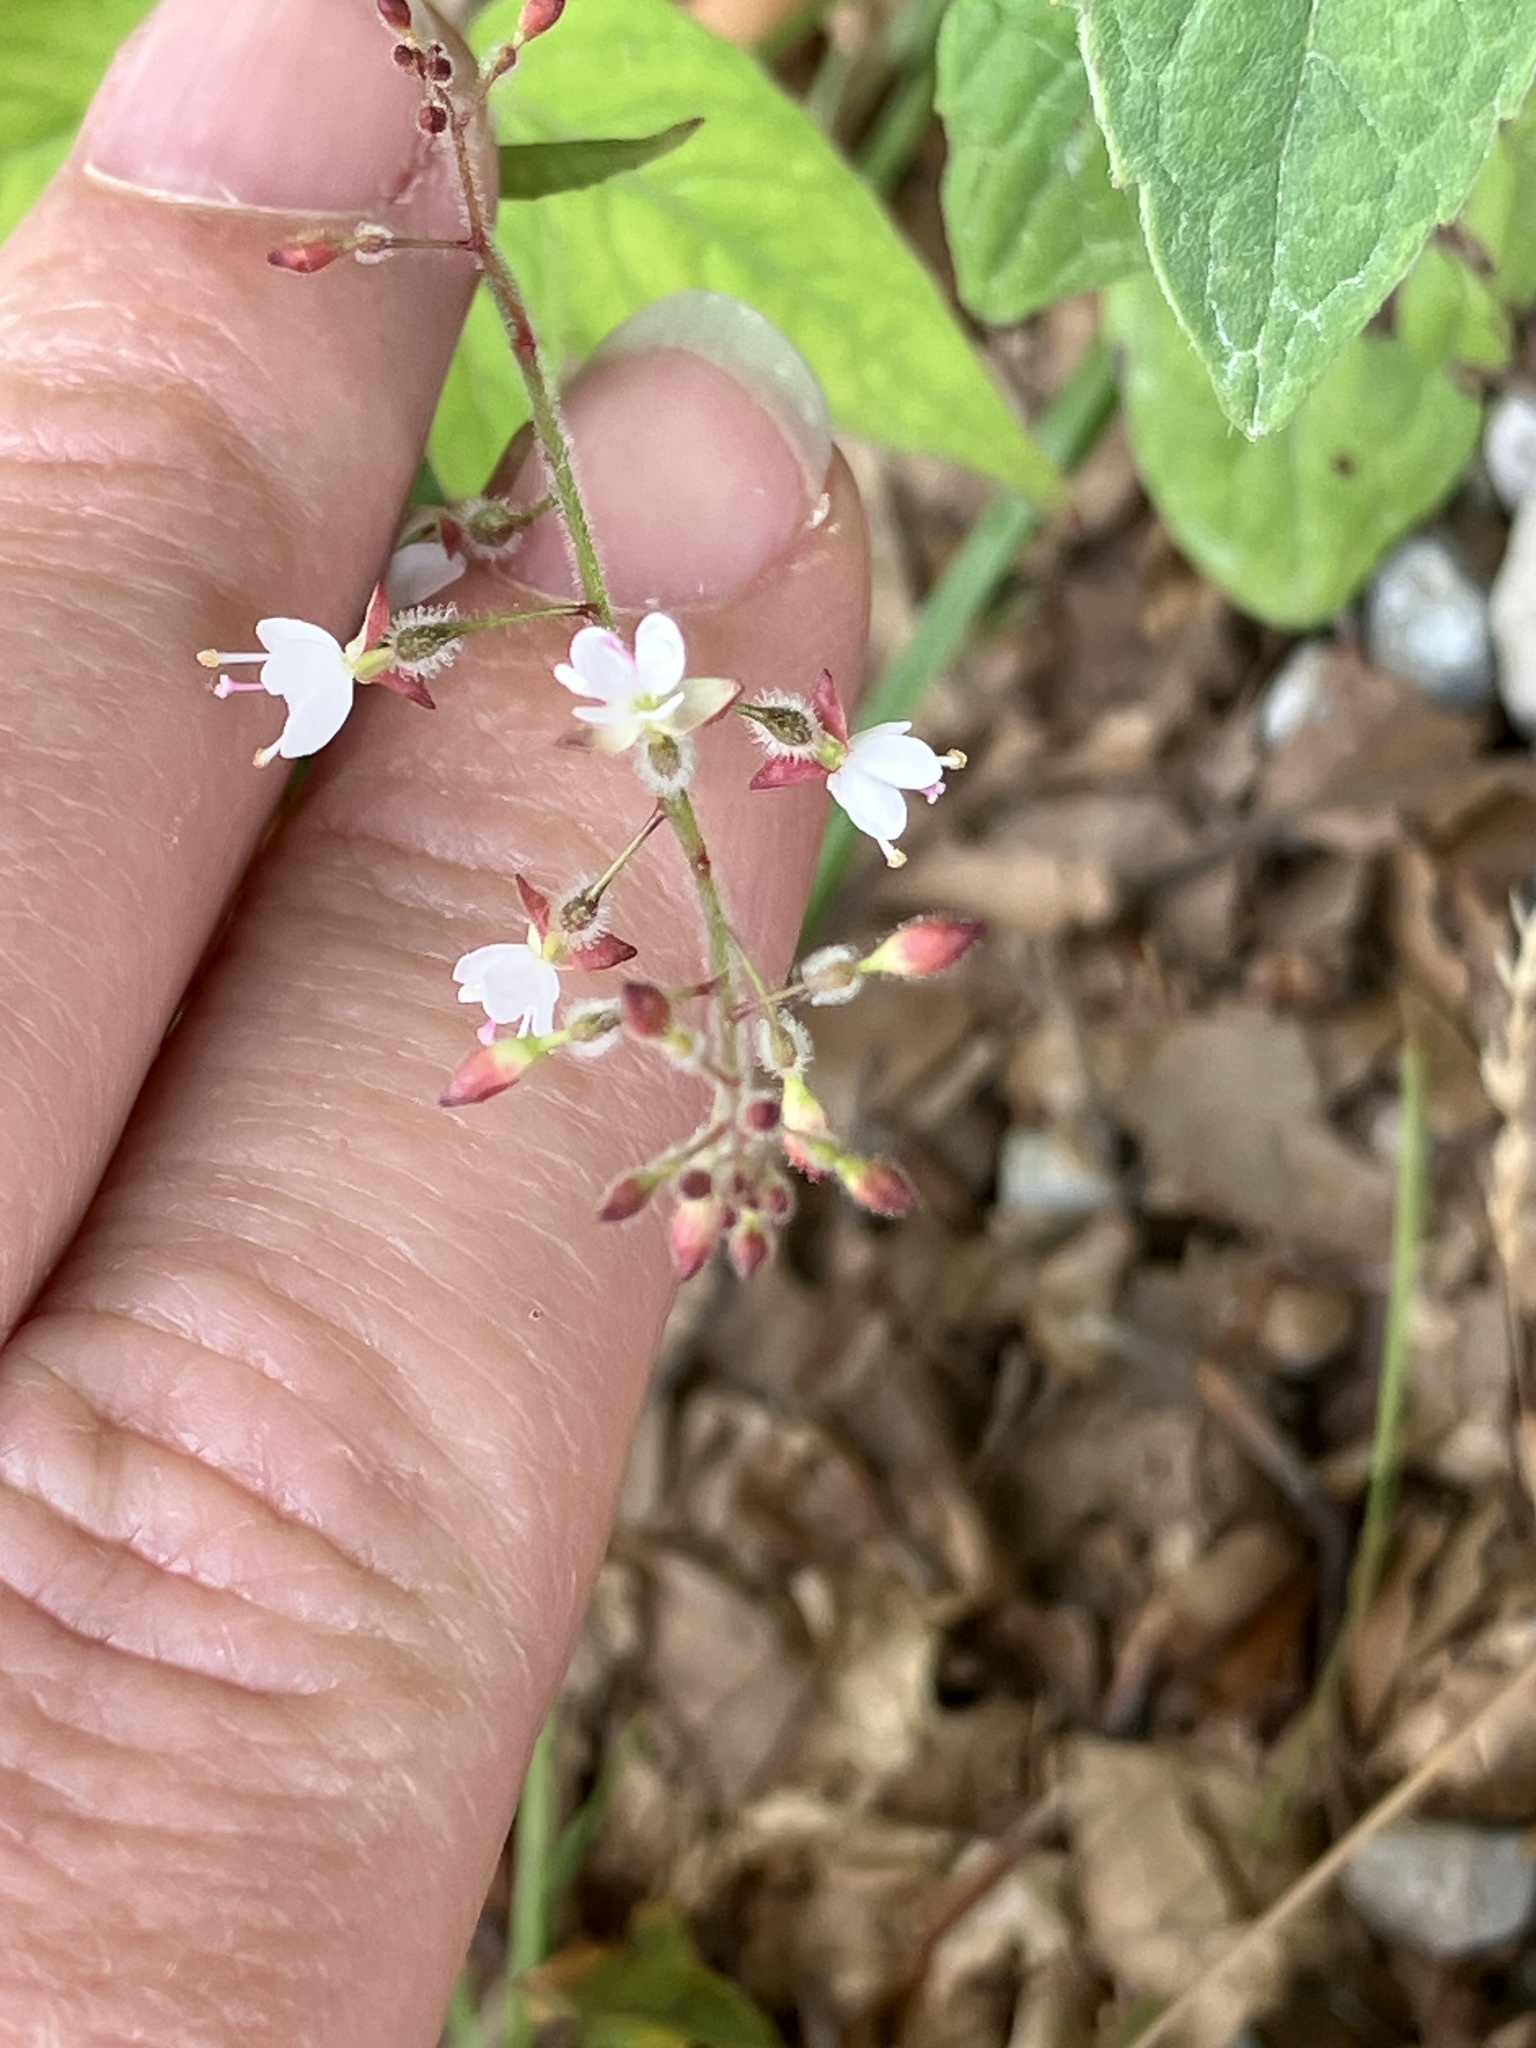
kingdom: Plantae
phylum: Tracheophyta
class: Magnoliopsida
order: Myrtales
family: Onagraceae
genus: Circaea
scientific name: Circaea lutetiana
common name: Enchanter's-nightshade
